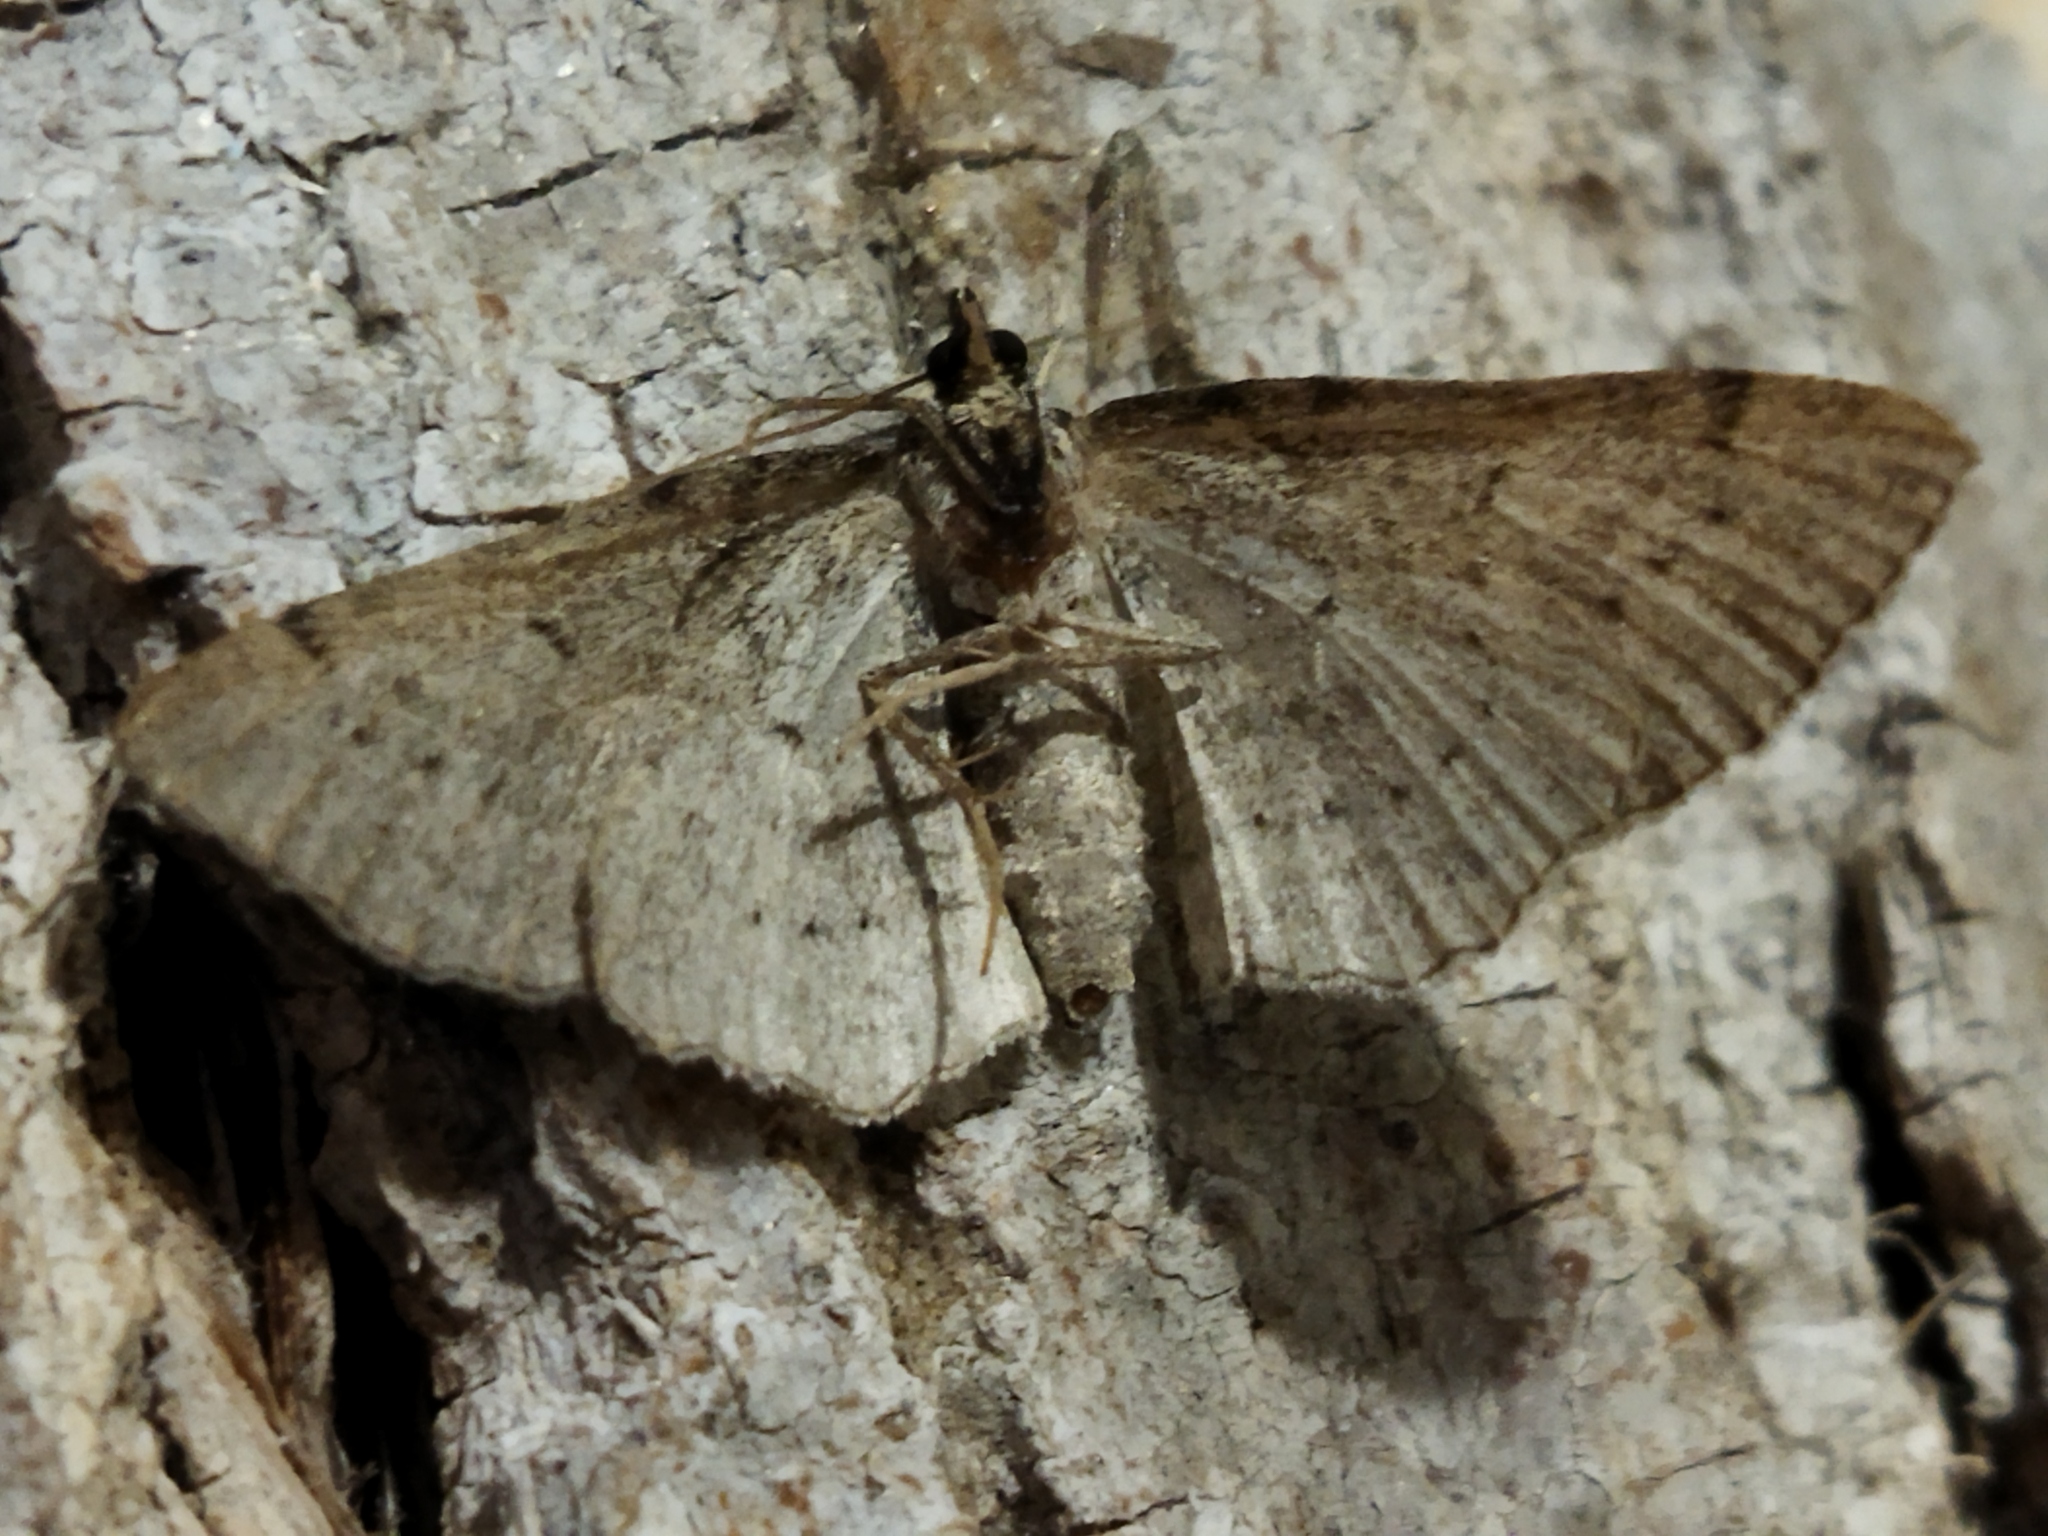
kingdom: Animalia
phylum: Arthropoda
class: Insecta
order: Lepidoptera
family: Geometridae
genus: Horisme
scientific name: Horisme corticata
